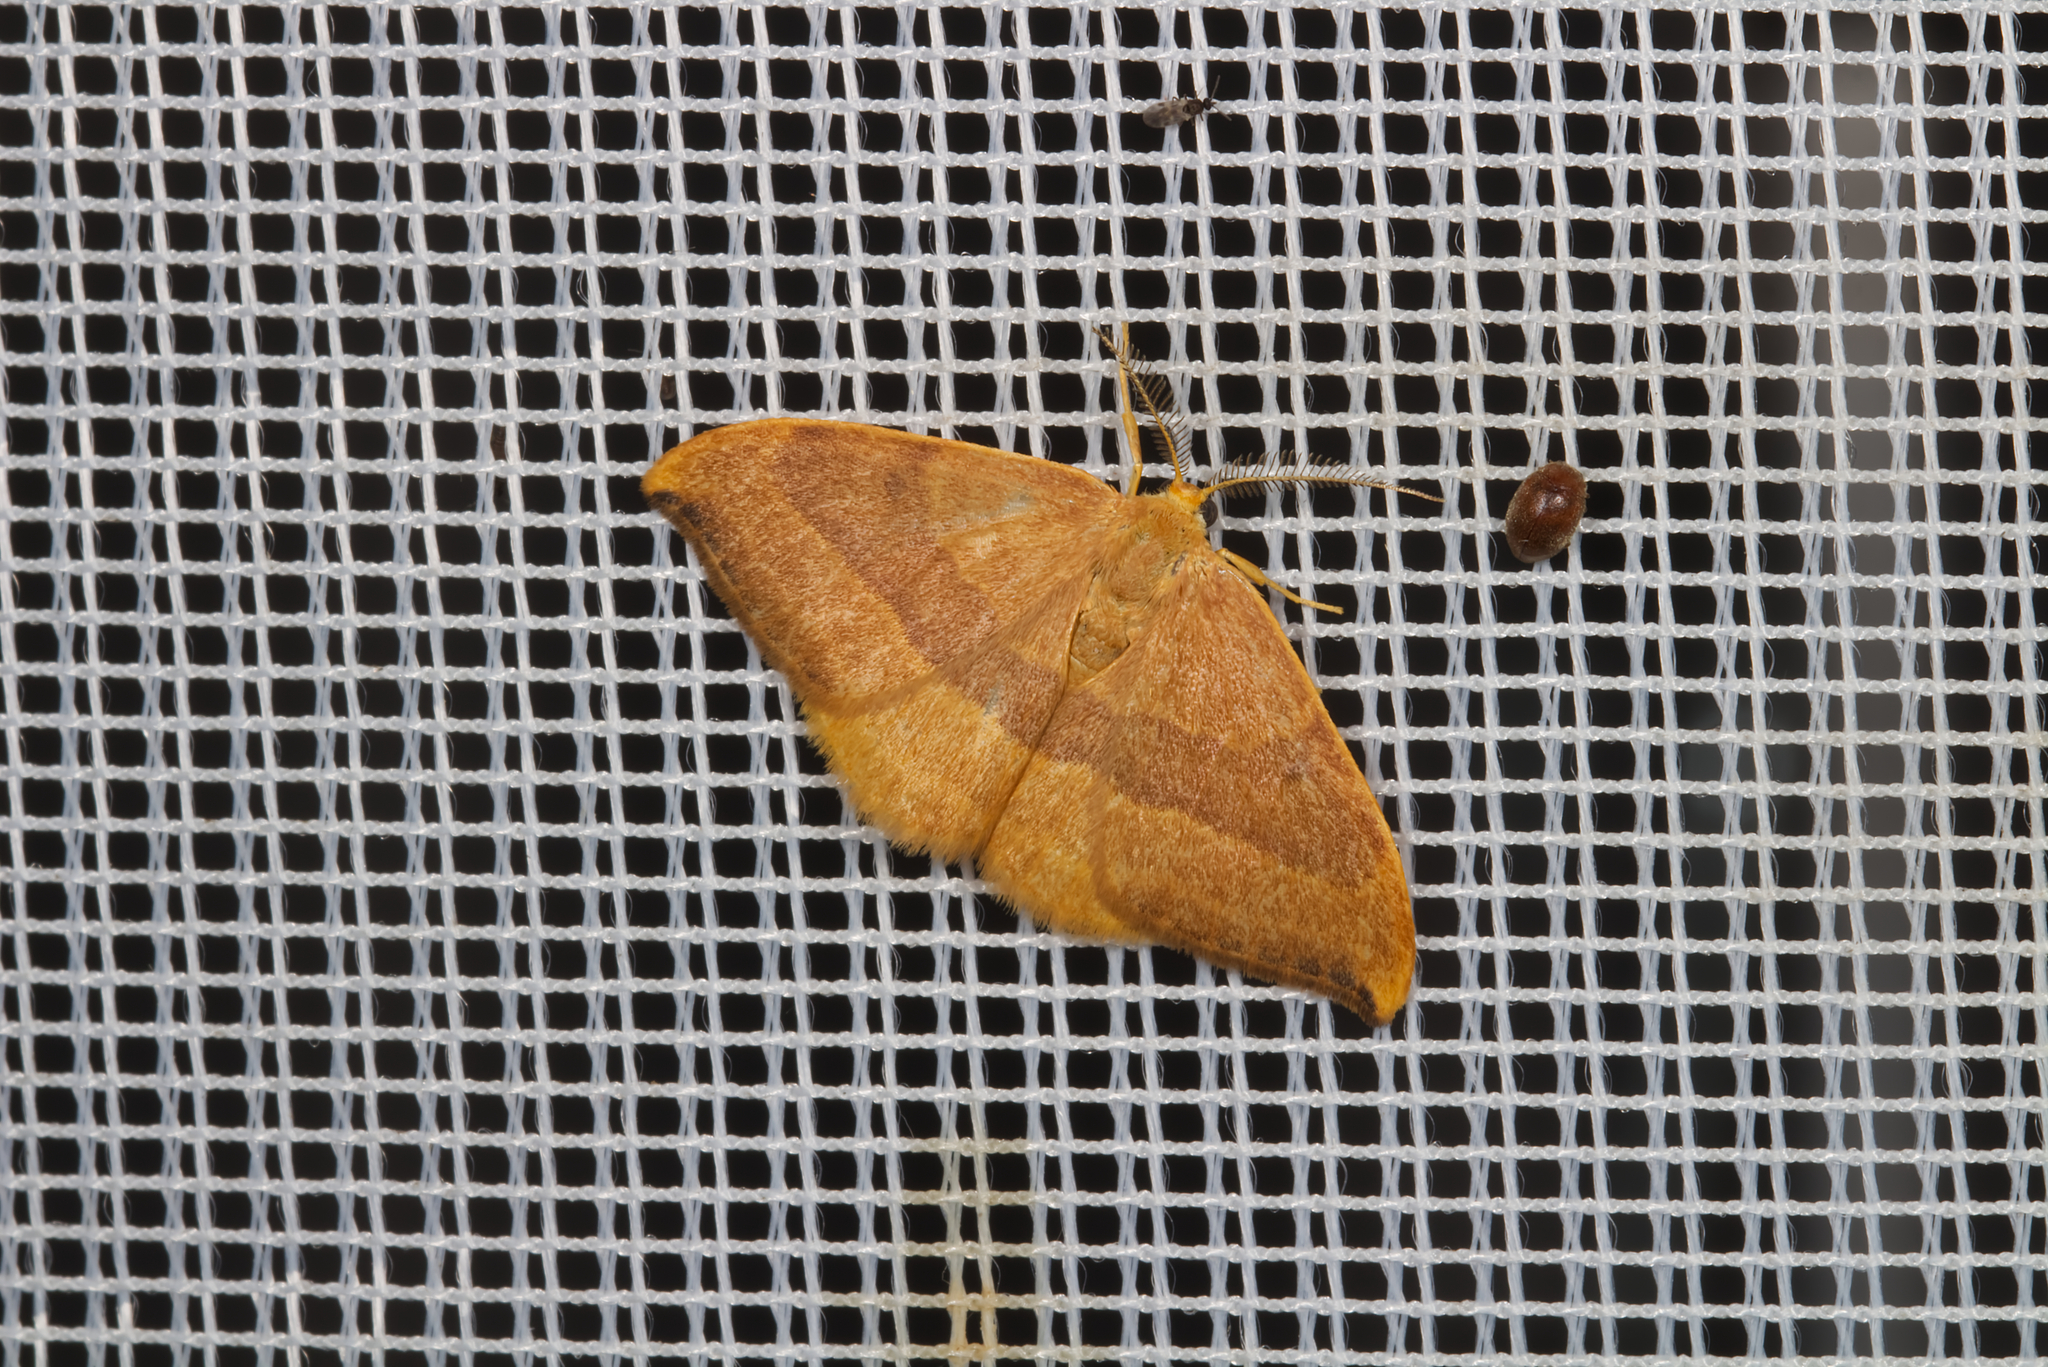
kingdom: Animalia
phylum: Arthropoda
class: Insecta
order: Lepidoptera
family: Drepanidae
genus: Watsonalla
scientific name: Watsonalla cultraria
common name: Barred hook-tip
